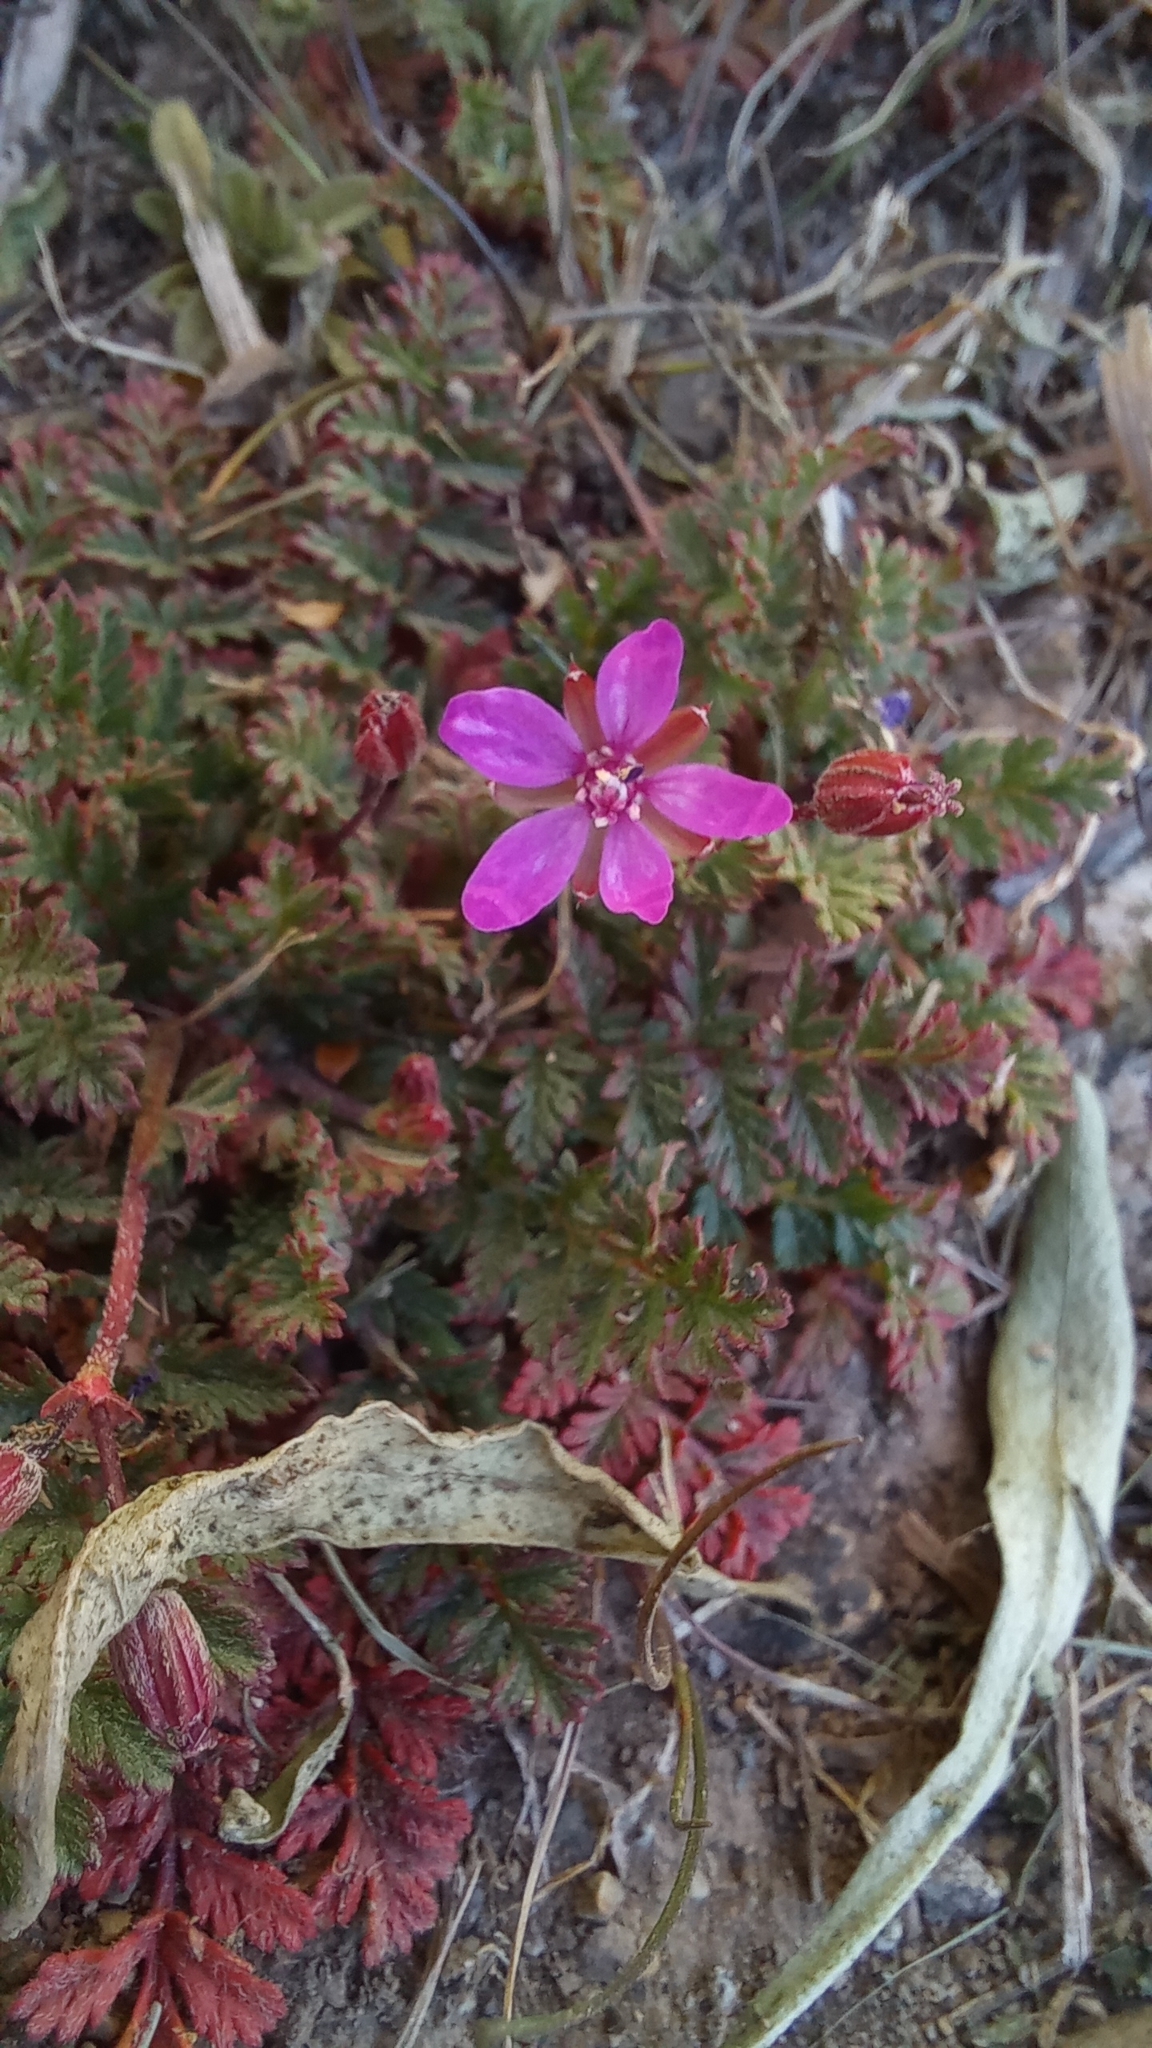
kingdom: Plantae
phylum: Tracheophyta
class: Magnoliopsida
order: Geraniales
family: Geraniaceae
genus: Erodium
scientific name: Erodium cicutarium
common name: Common stork's-bill
